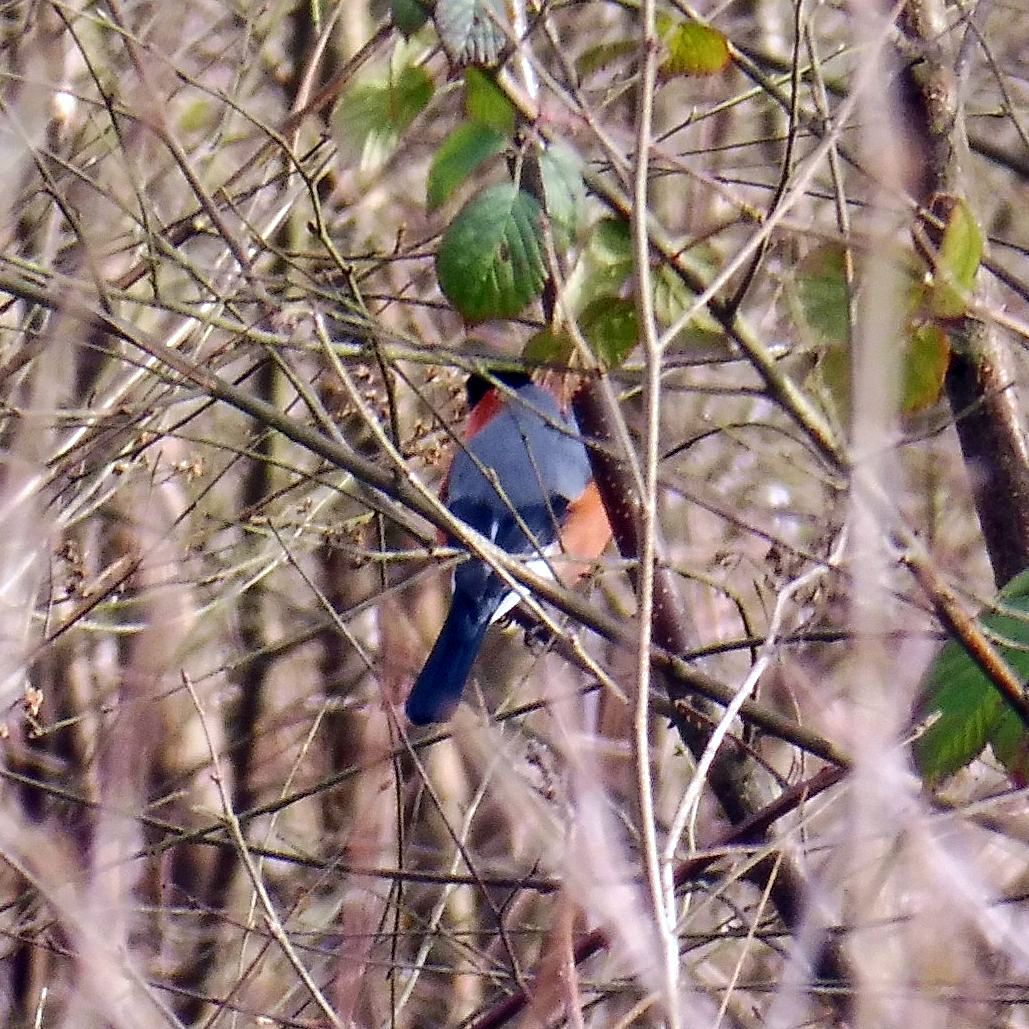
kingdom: Animalia
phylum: Chordata
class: Aves
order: Passeriformes
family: Fringillidae
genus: Pyrrhula
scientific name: Pyrrhula pyrrhula
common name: Eurasian bullfinch
